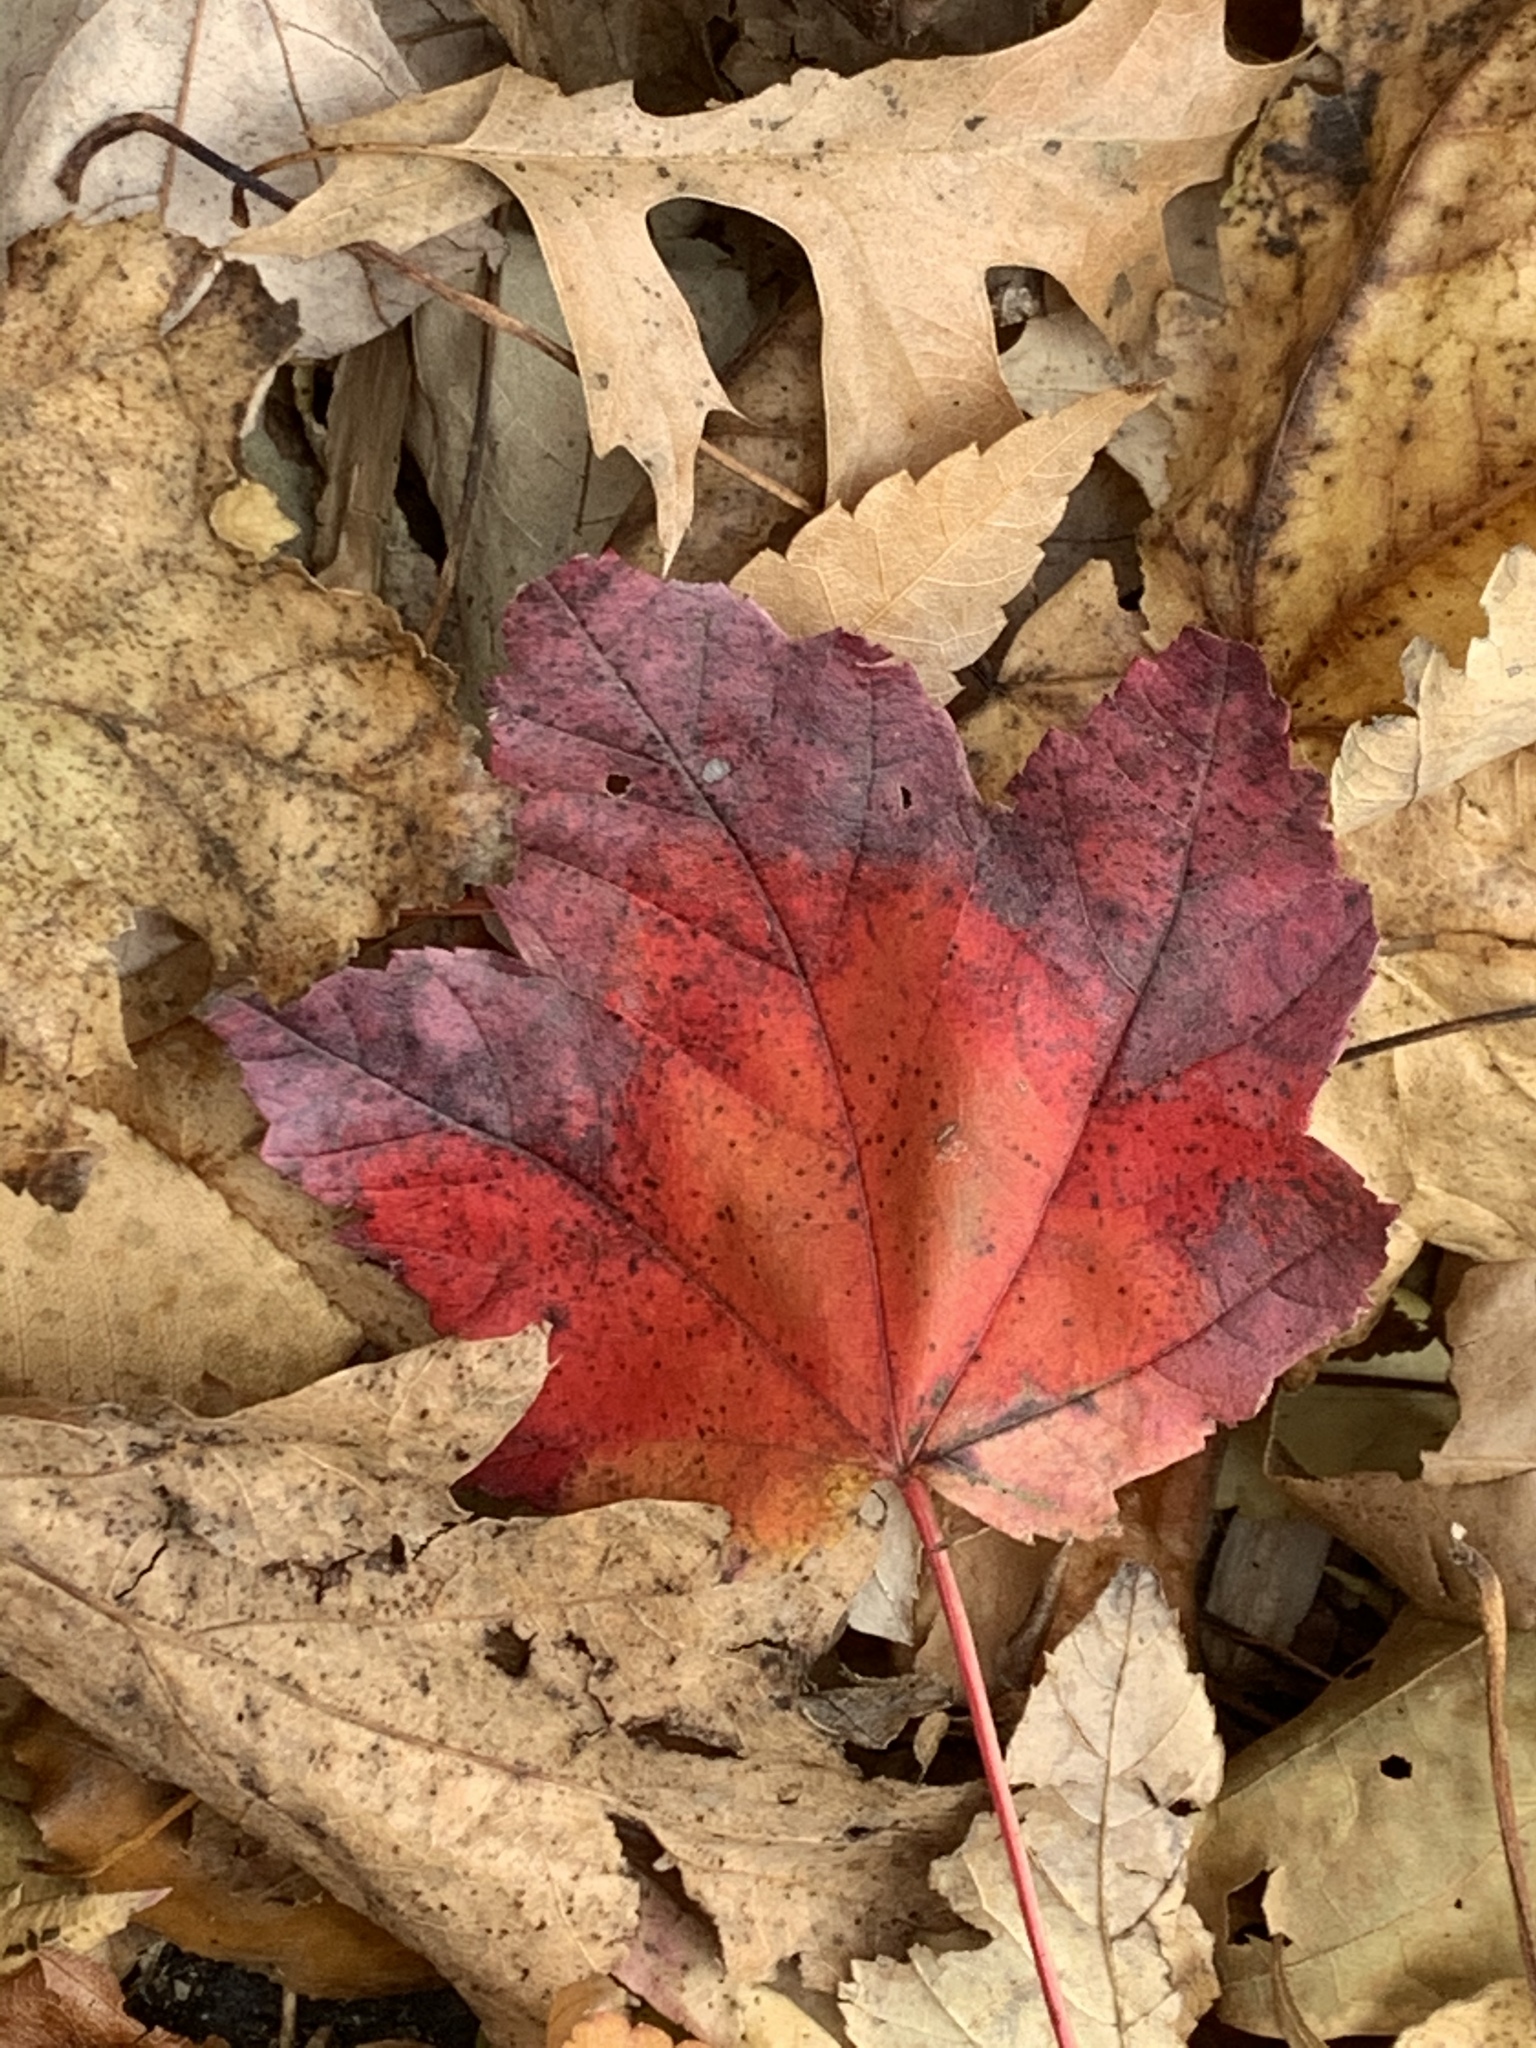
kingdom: Plantae
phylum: Tracheophyta
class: Magnoliopsida
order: Sapindales
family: Sapindaceae
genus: Acer
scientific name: Acer rubrum
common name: Red maple
